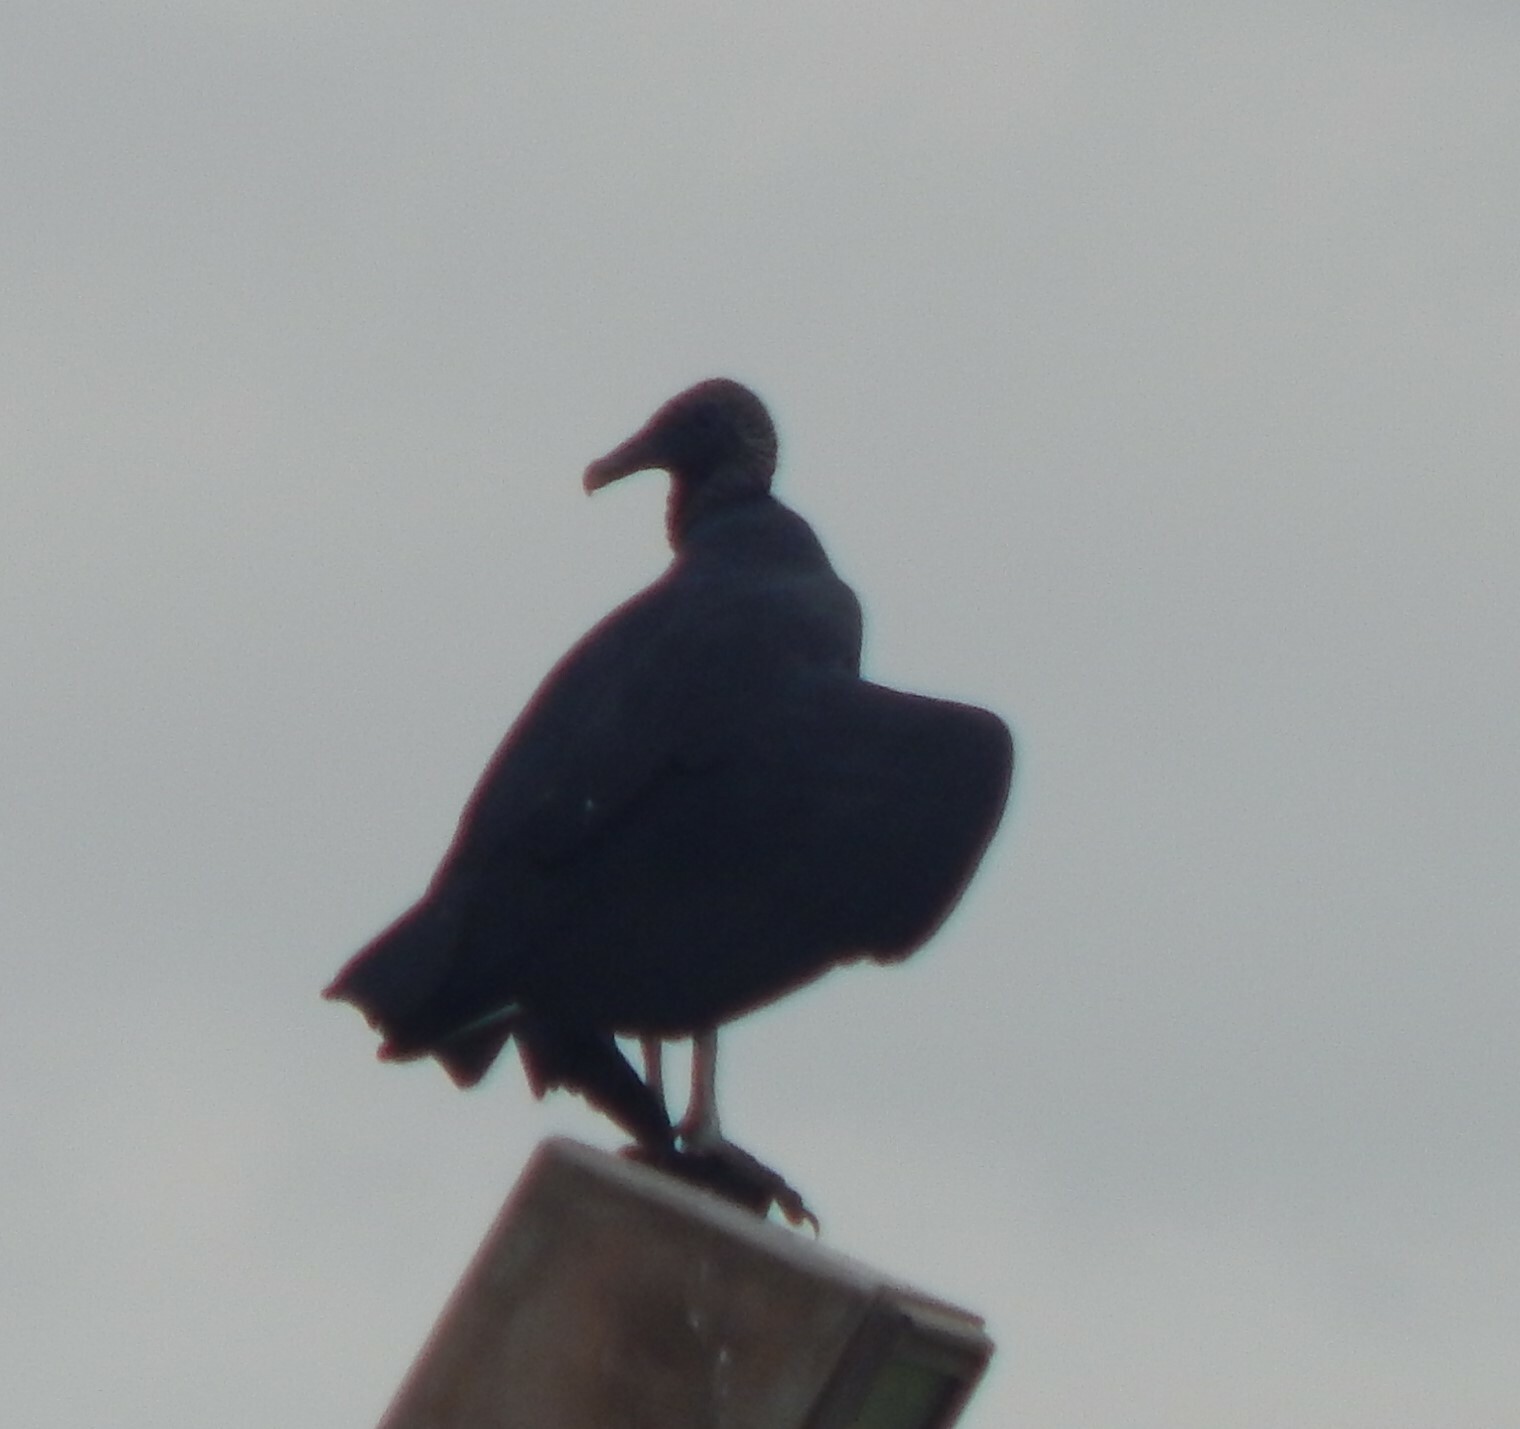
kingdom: Animalia
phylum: Chordata
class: Aves
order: Accipitriformes
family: Cathartidae
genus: Coragyps
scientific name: Coragyps atratus
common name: Black vulture
